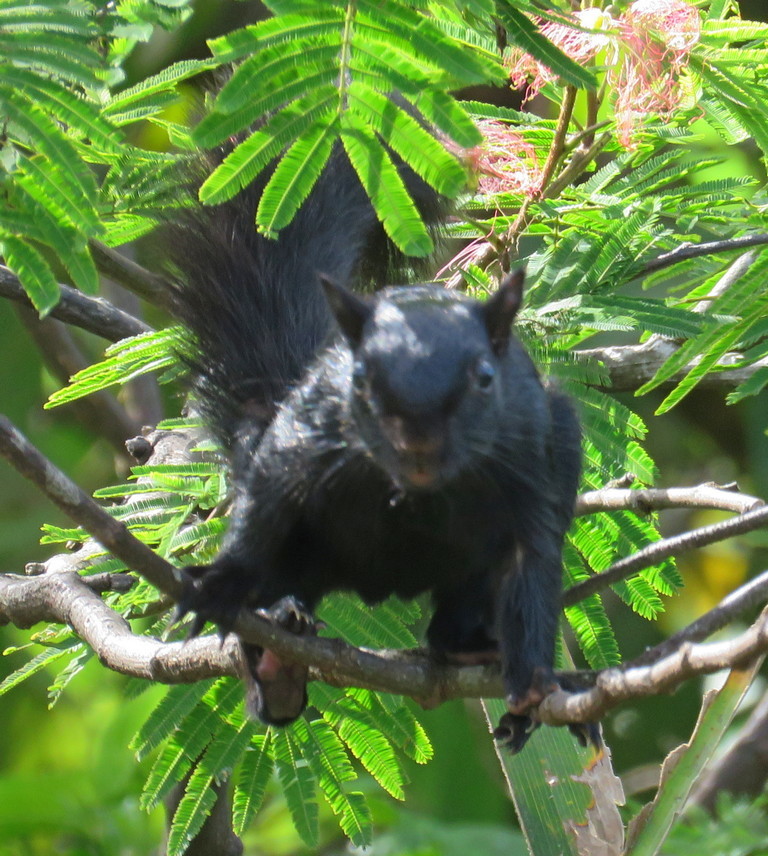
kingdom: Animalia
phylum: Chordata
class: Mammalia
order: Rodentia
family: Sciuridae
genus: Sciurus
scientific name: Sciurus variegatoides
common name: Variegated squirrel
